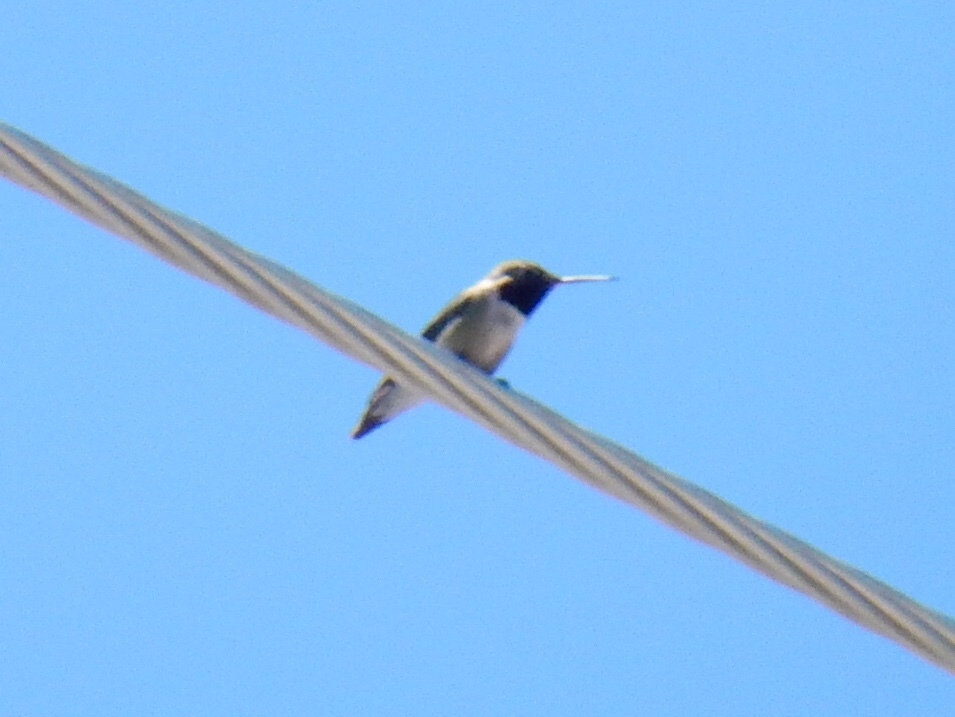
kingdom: Animalia
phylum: Chordata
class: Aves
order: Apodiformes
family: Trochilidae
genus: Selasphorus
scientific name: Selasphorus platycercus
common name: Broad-tailed hummingbird
